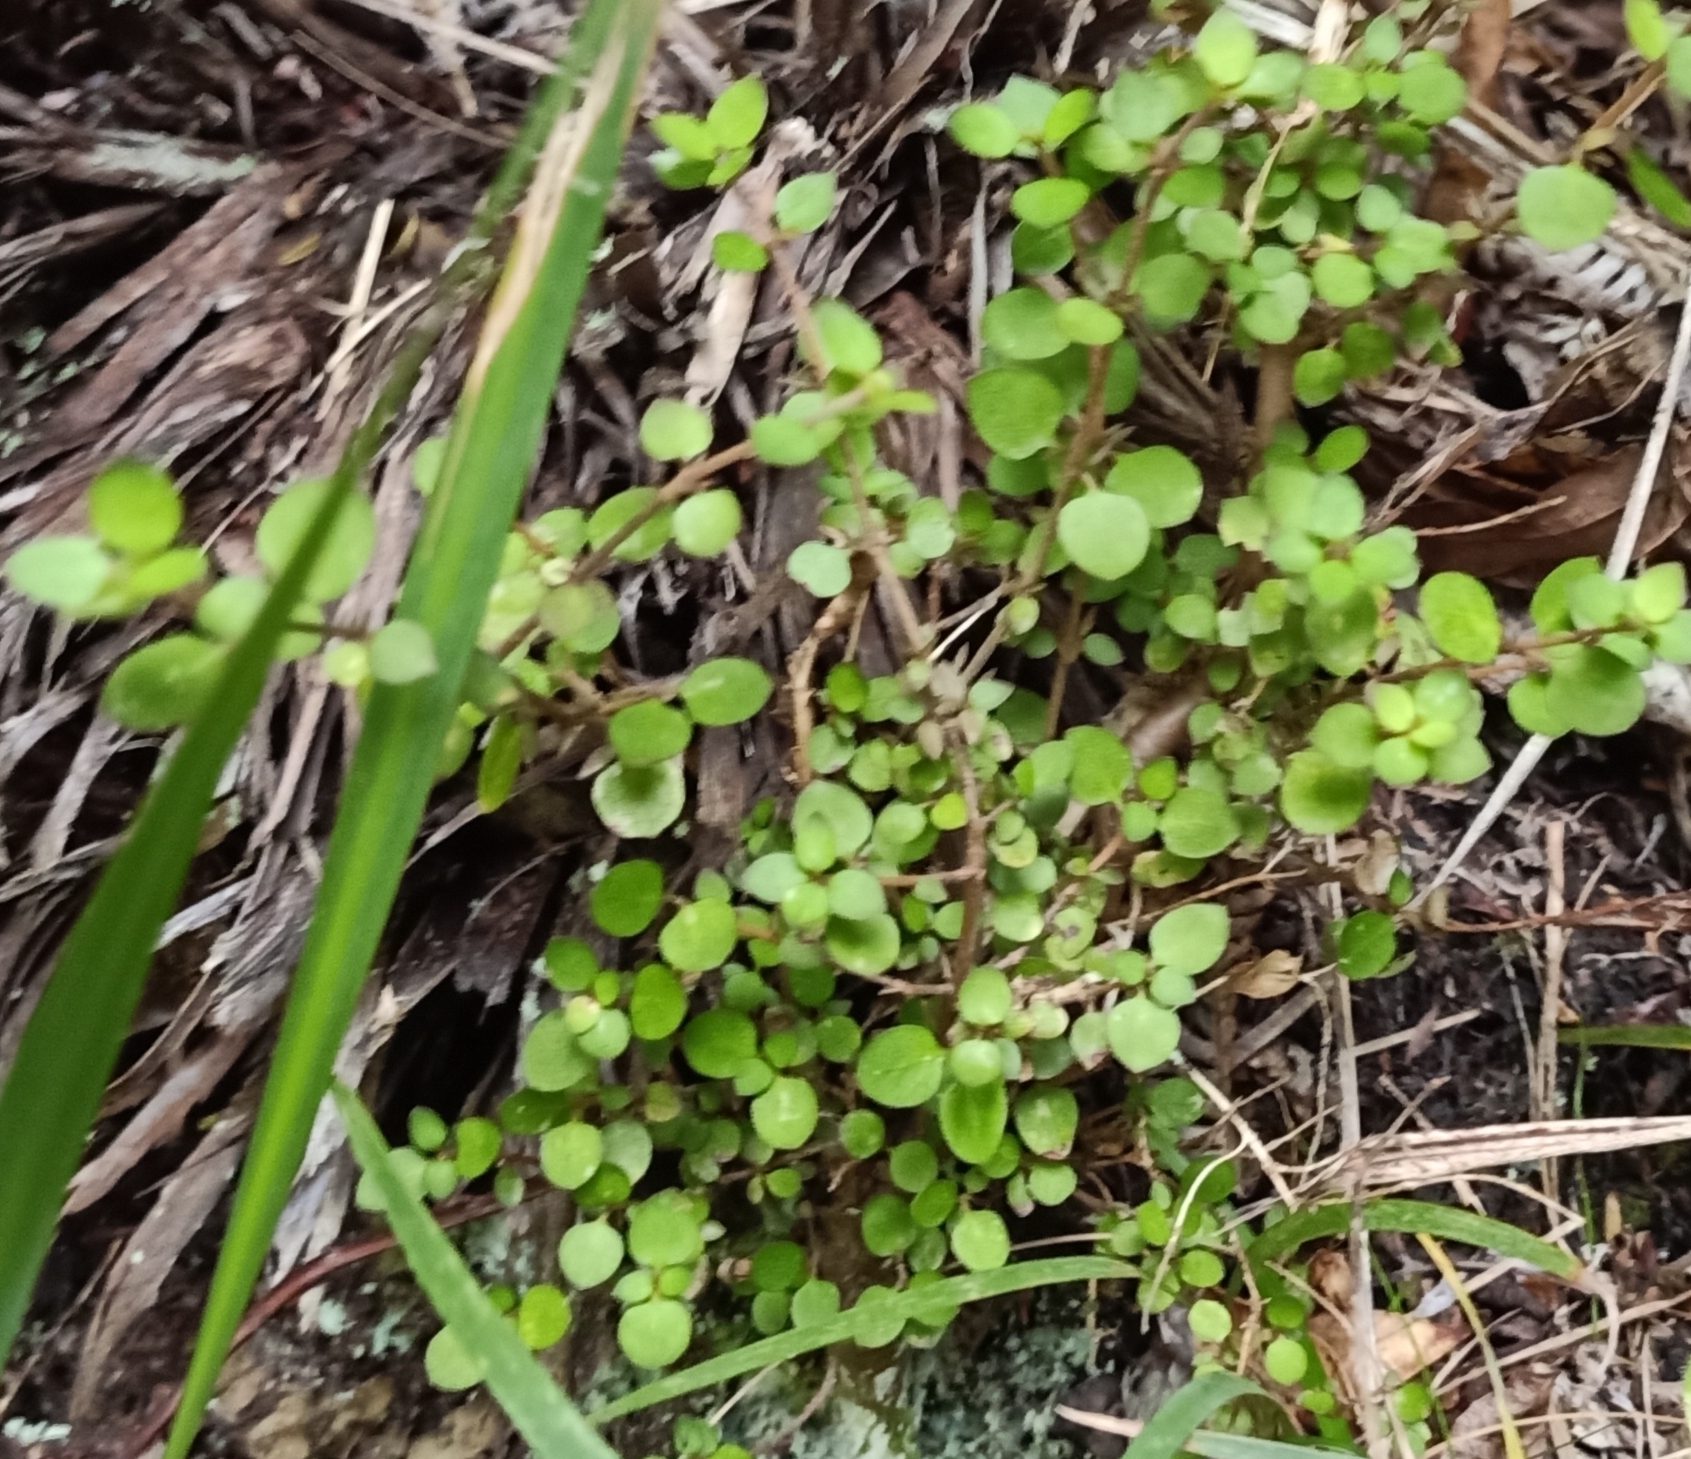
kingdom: Plantae
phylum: Tracheophyta
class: Magnoliopsida
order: Gentianales
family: Rubiaceae
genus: Coprosma
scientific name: Coprosma rhamnoides
